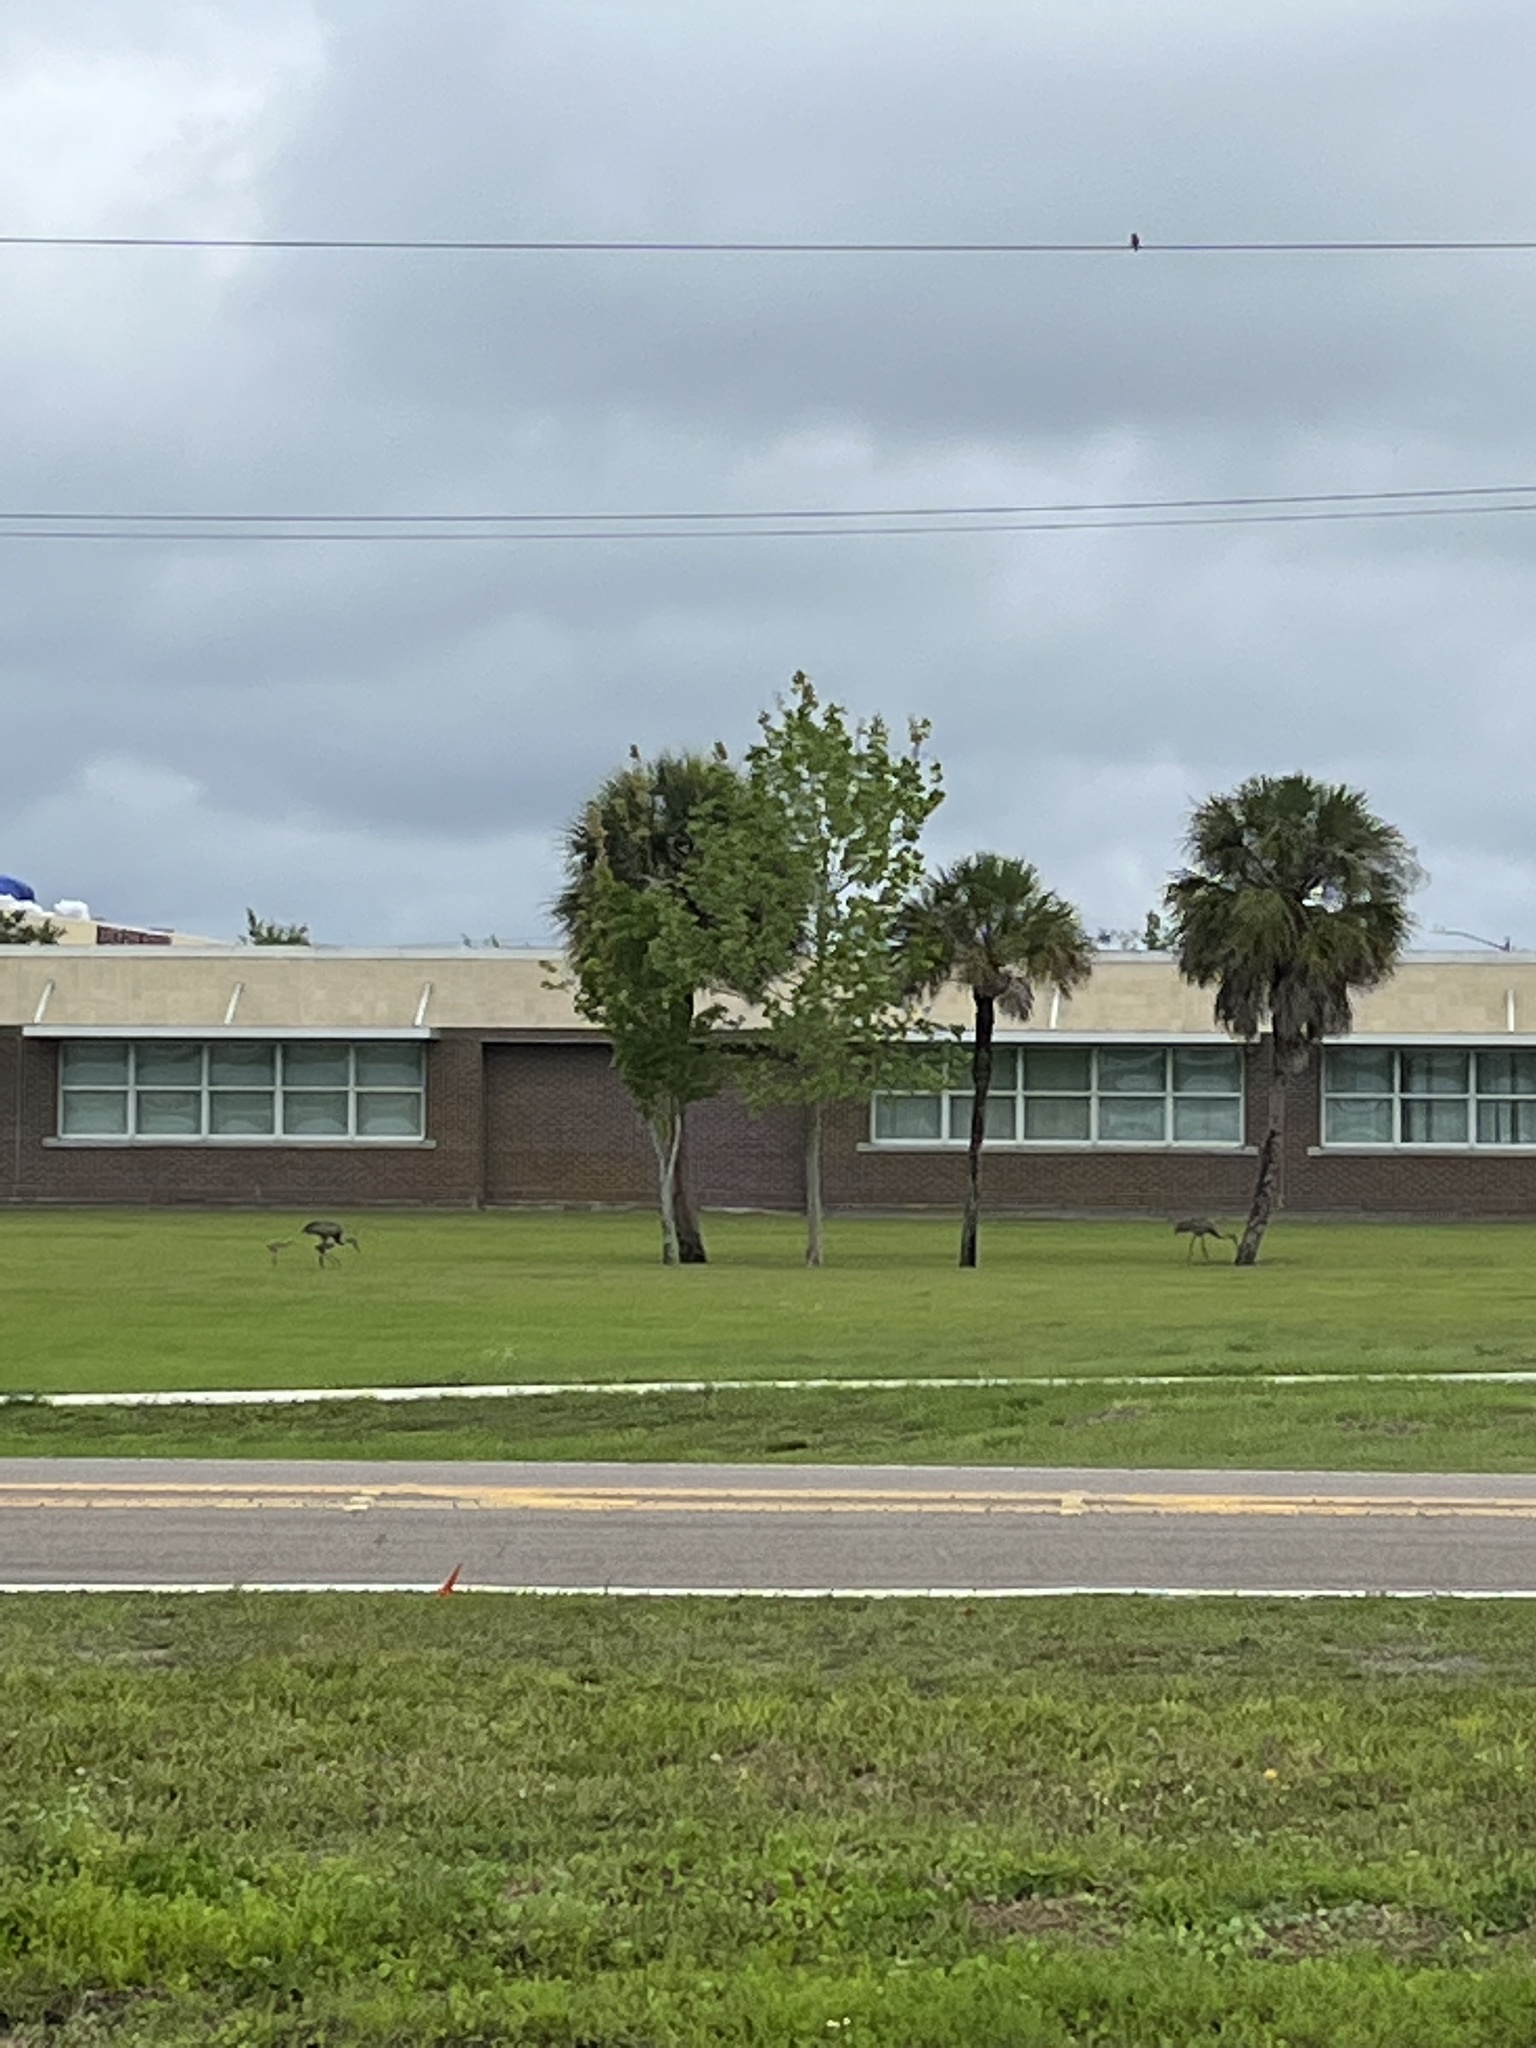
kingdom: Animalia
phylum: Chordata
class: Aves
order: Gruiformes
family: Gruidae
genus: Grus
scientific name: Grus canadensis
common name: Sandhill crane
